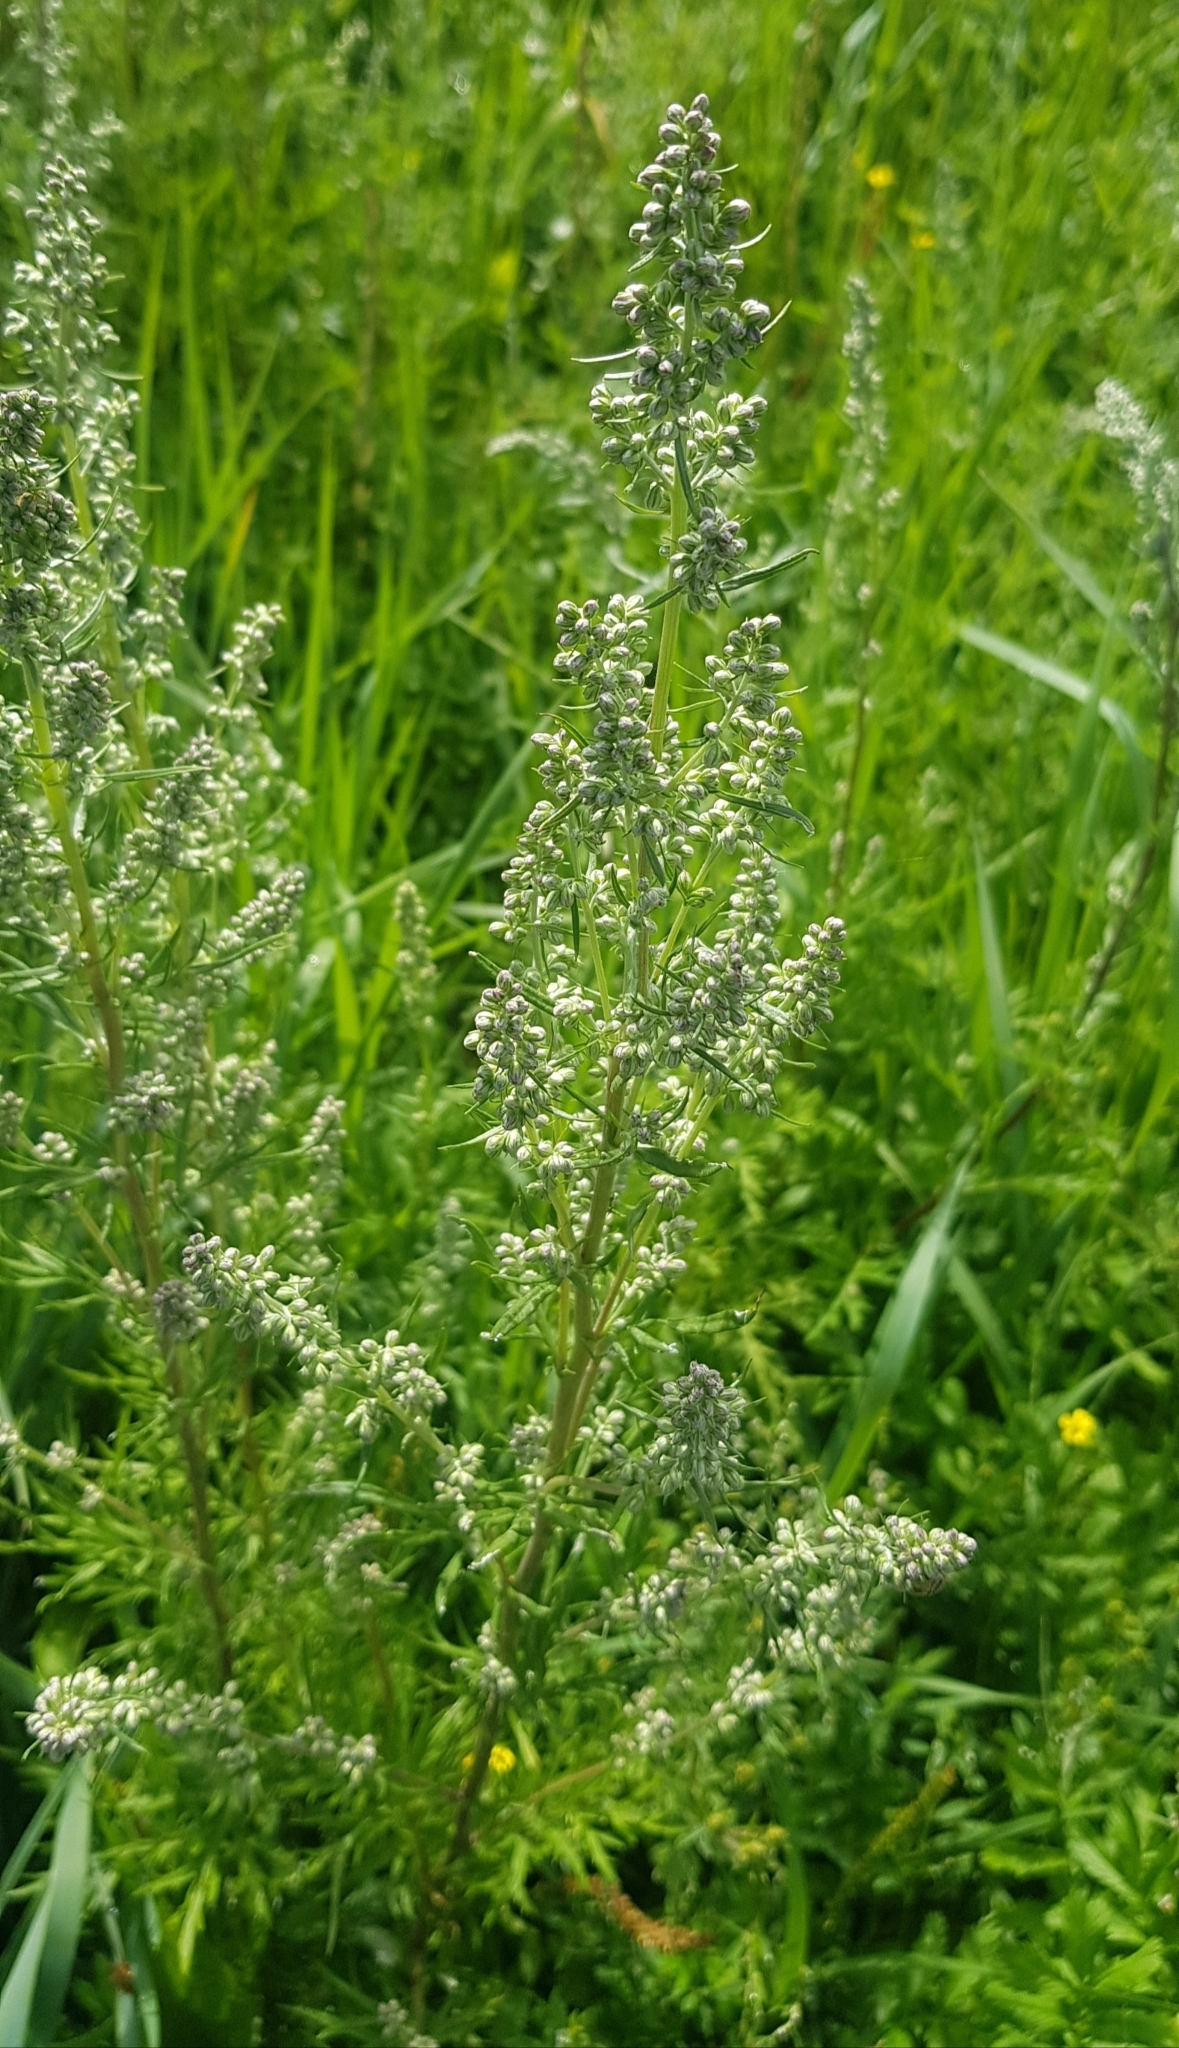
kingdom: Plantae
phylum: Tracheophyta
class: Magnoliopsida
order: Asterales
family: Asteraceae
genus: Artemisia
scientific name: Artemisia vulgaris
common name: Mugwort
